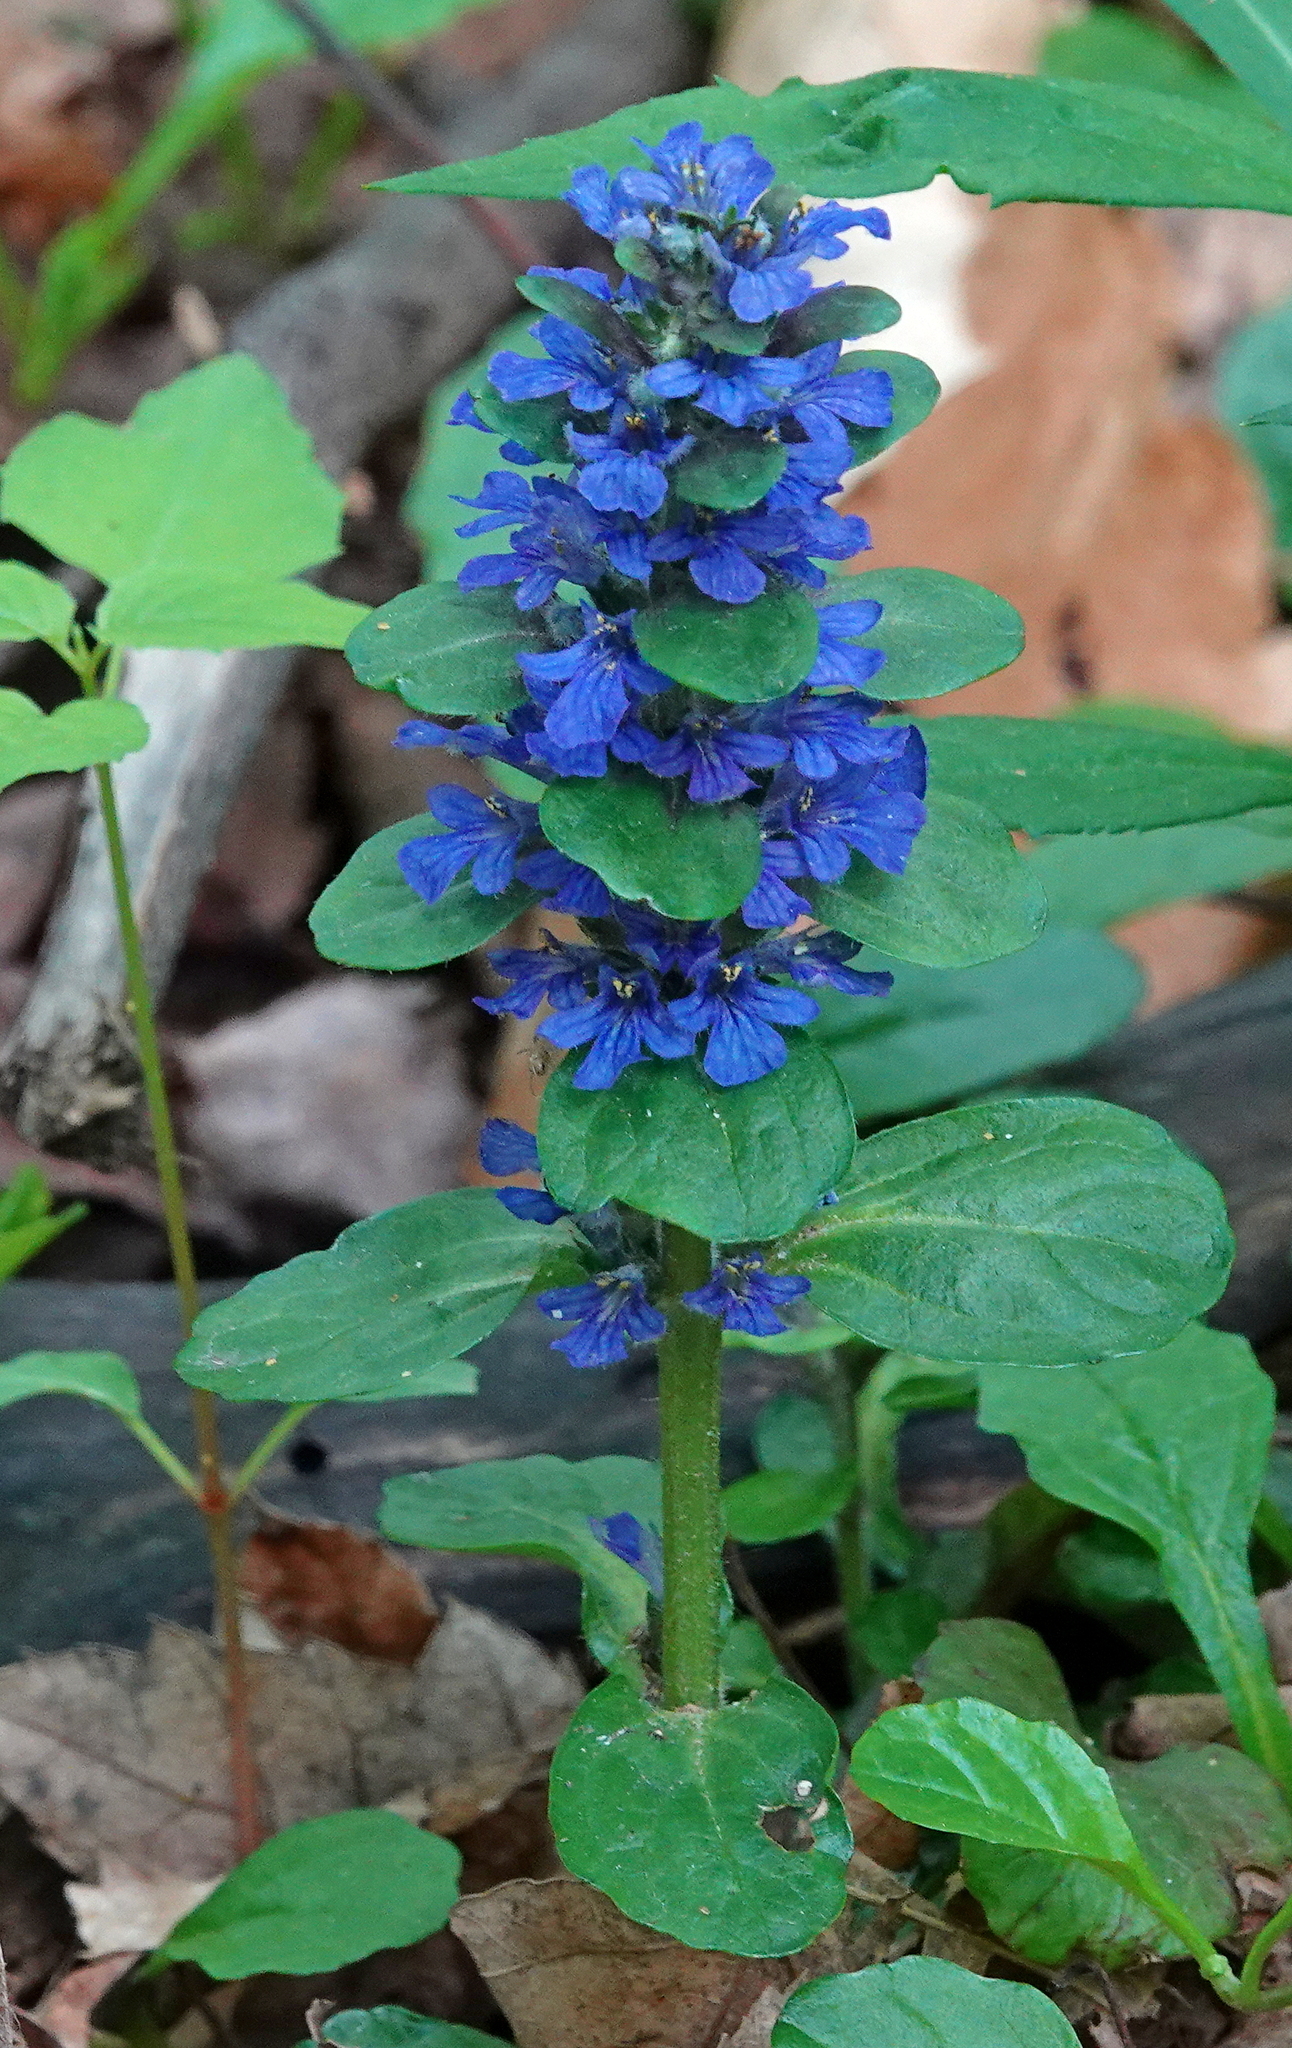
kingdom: Plantae
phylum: Tracheophyta
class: Magnoliopsida
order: Lamiales
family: Lamiaceae
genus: Ajuga
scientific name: Ajuga reptans
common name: Bugle
